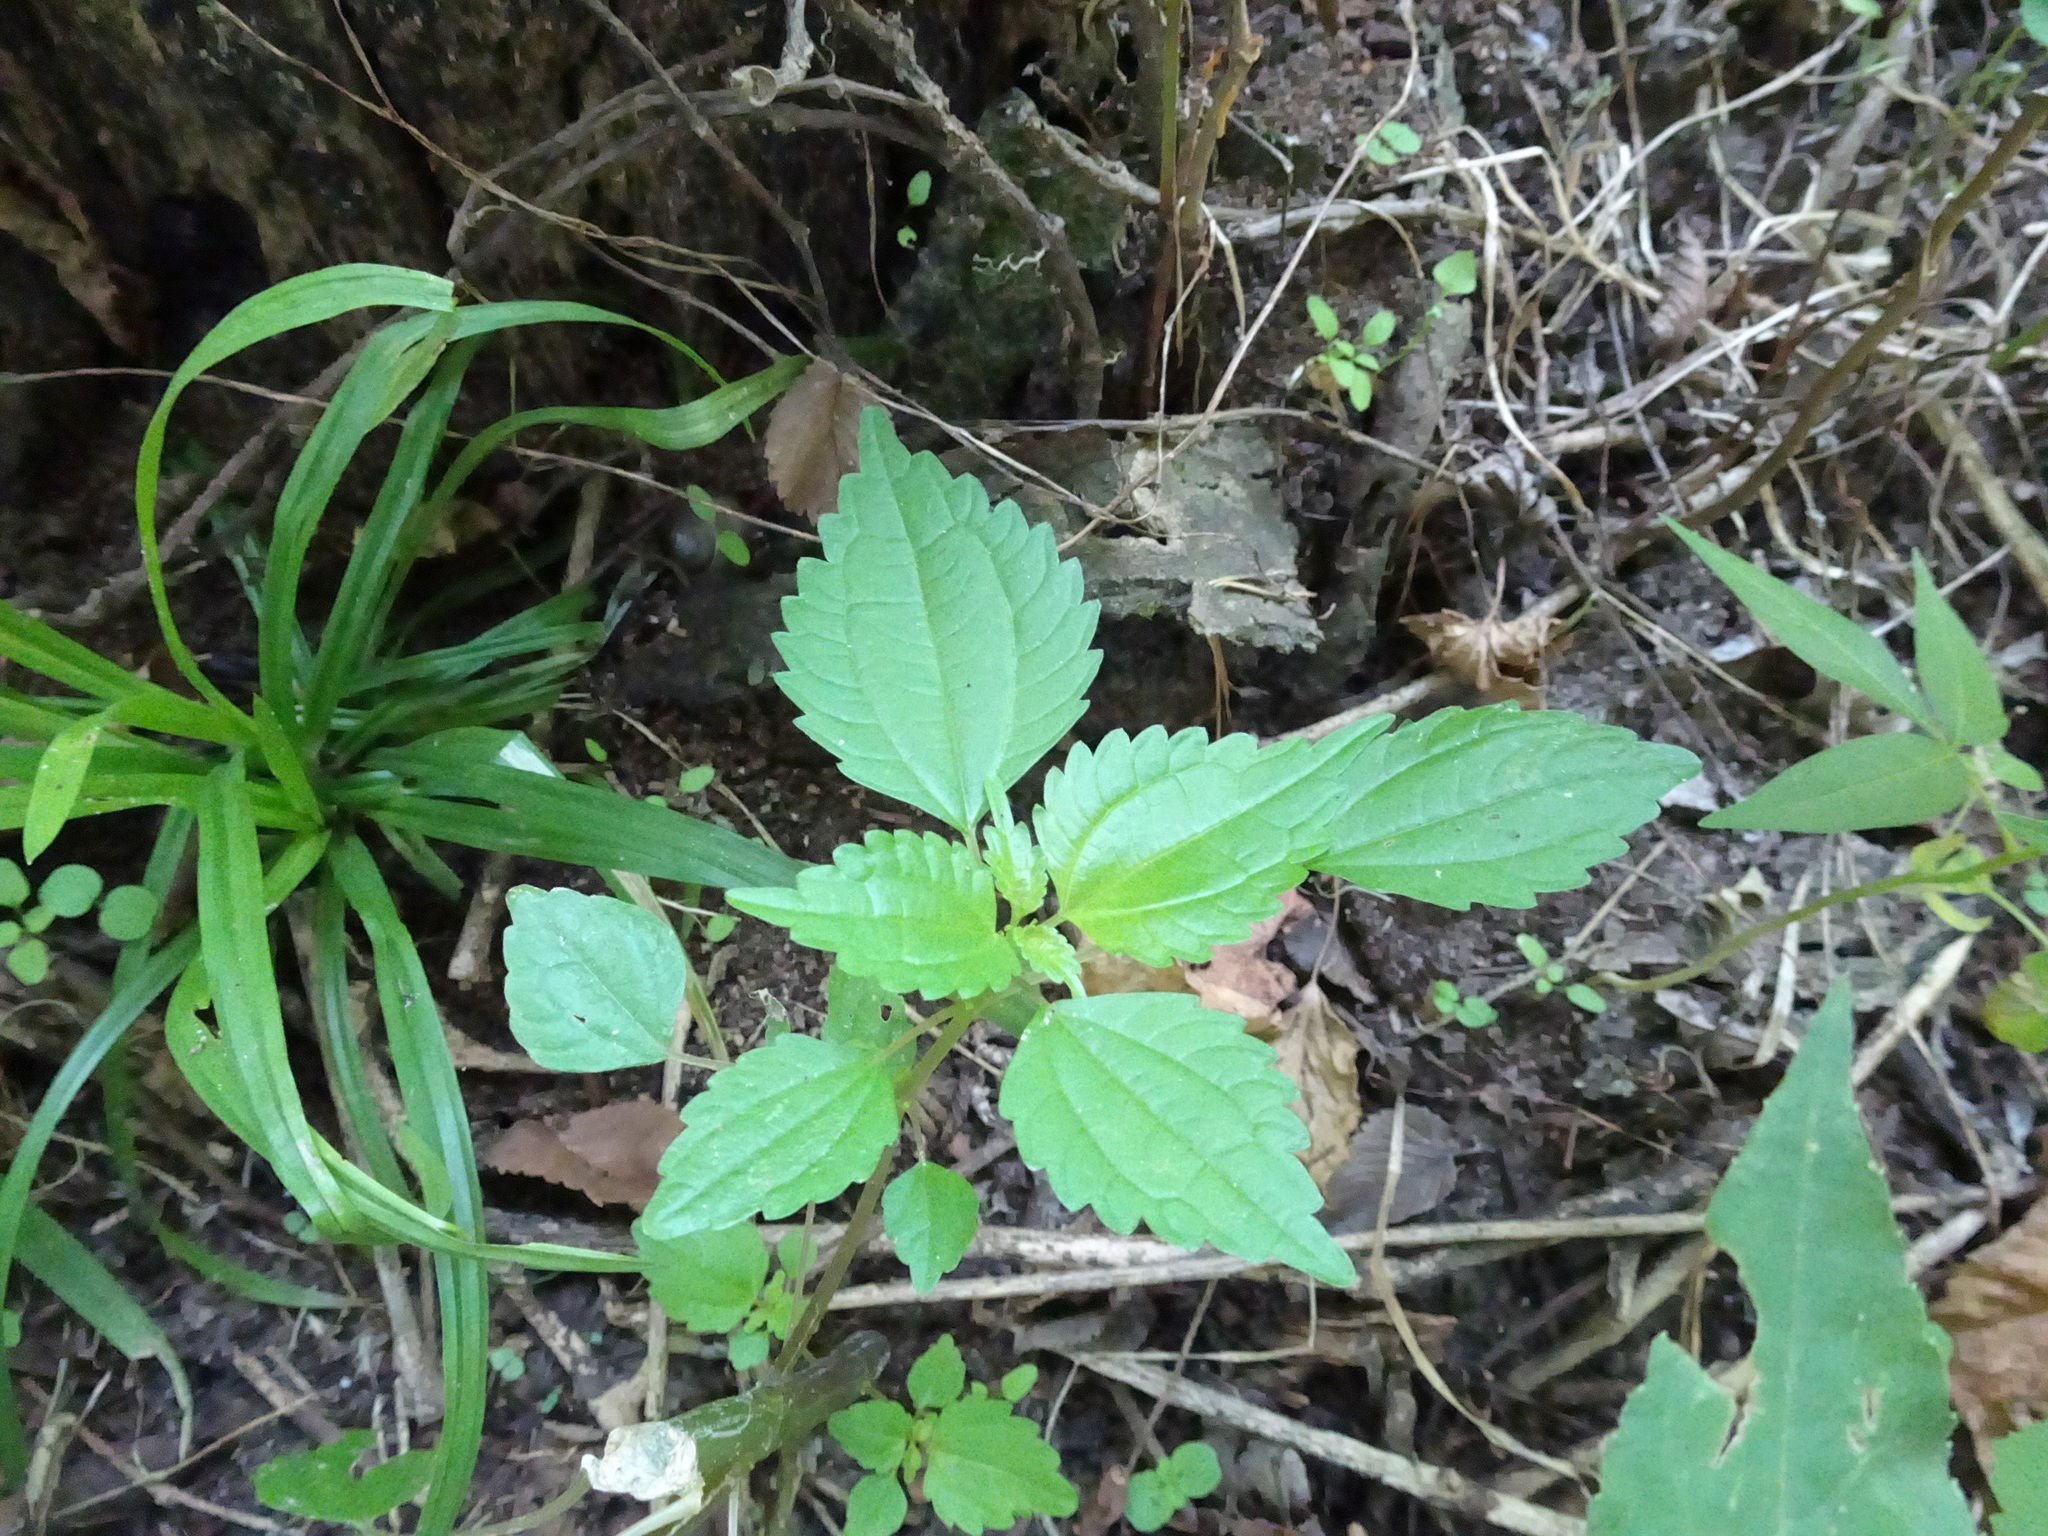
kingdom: Plantae
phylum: Tracheophyta
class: Magnoliopsida
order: Rosales
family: Urticaceae
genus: Pilea
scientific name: Pilea pumila
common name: Clearweed
